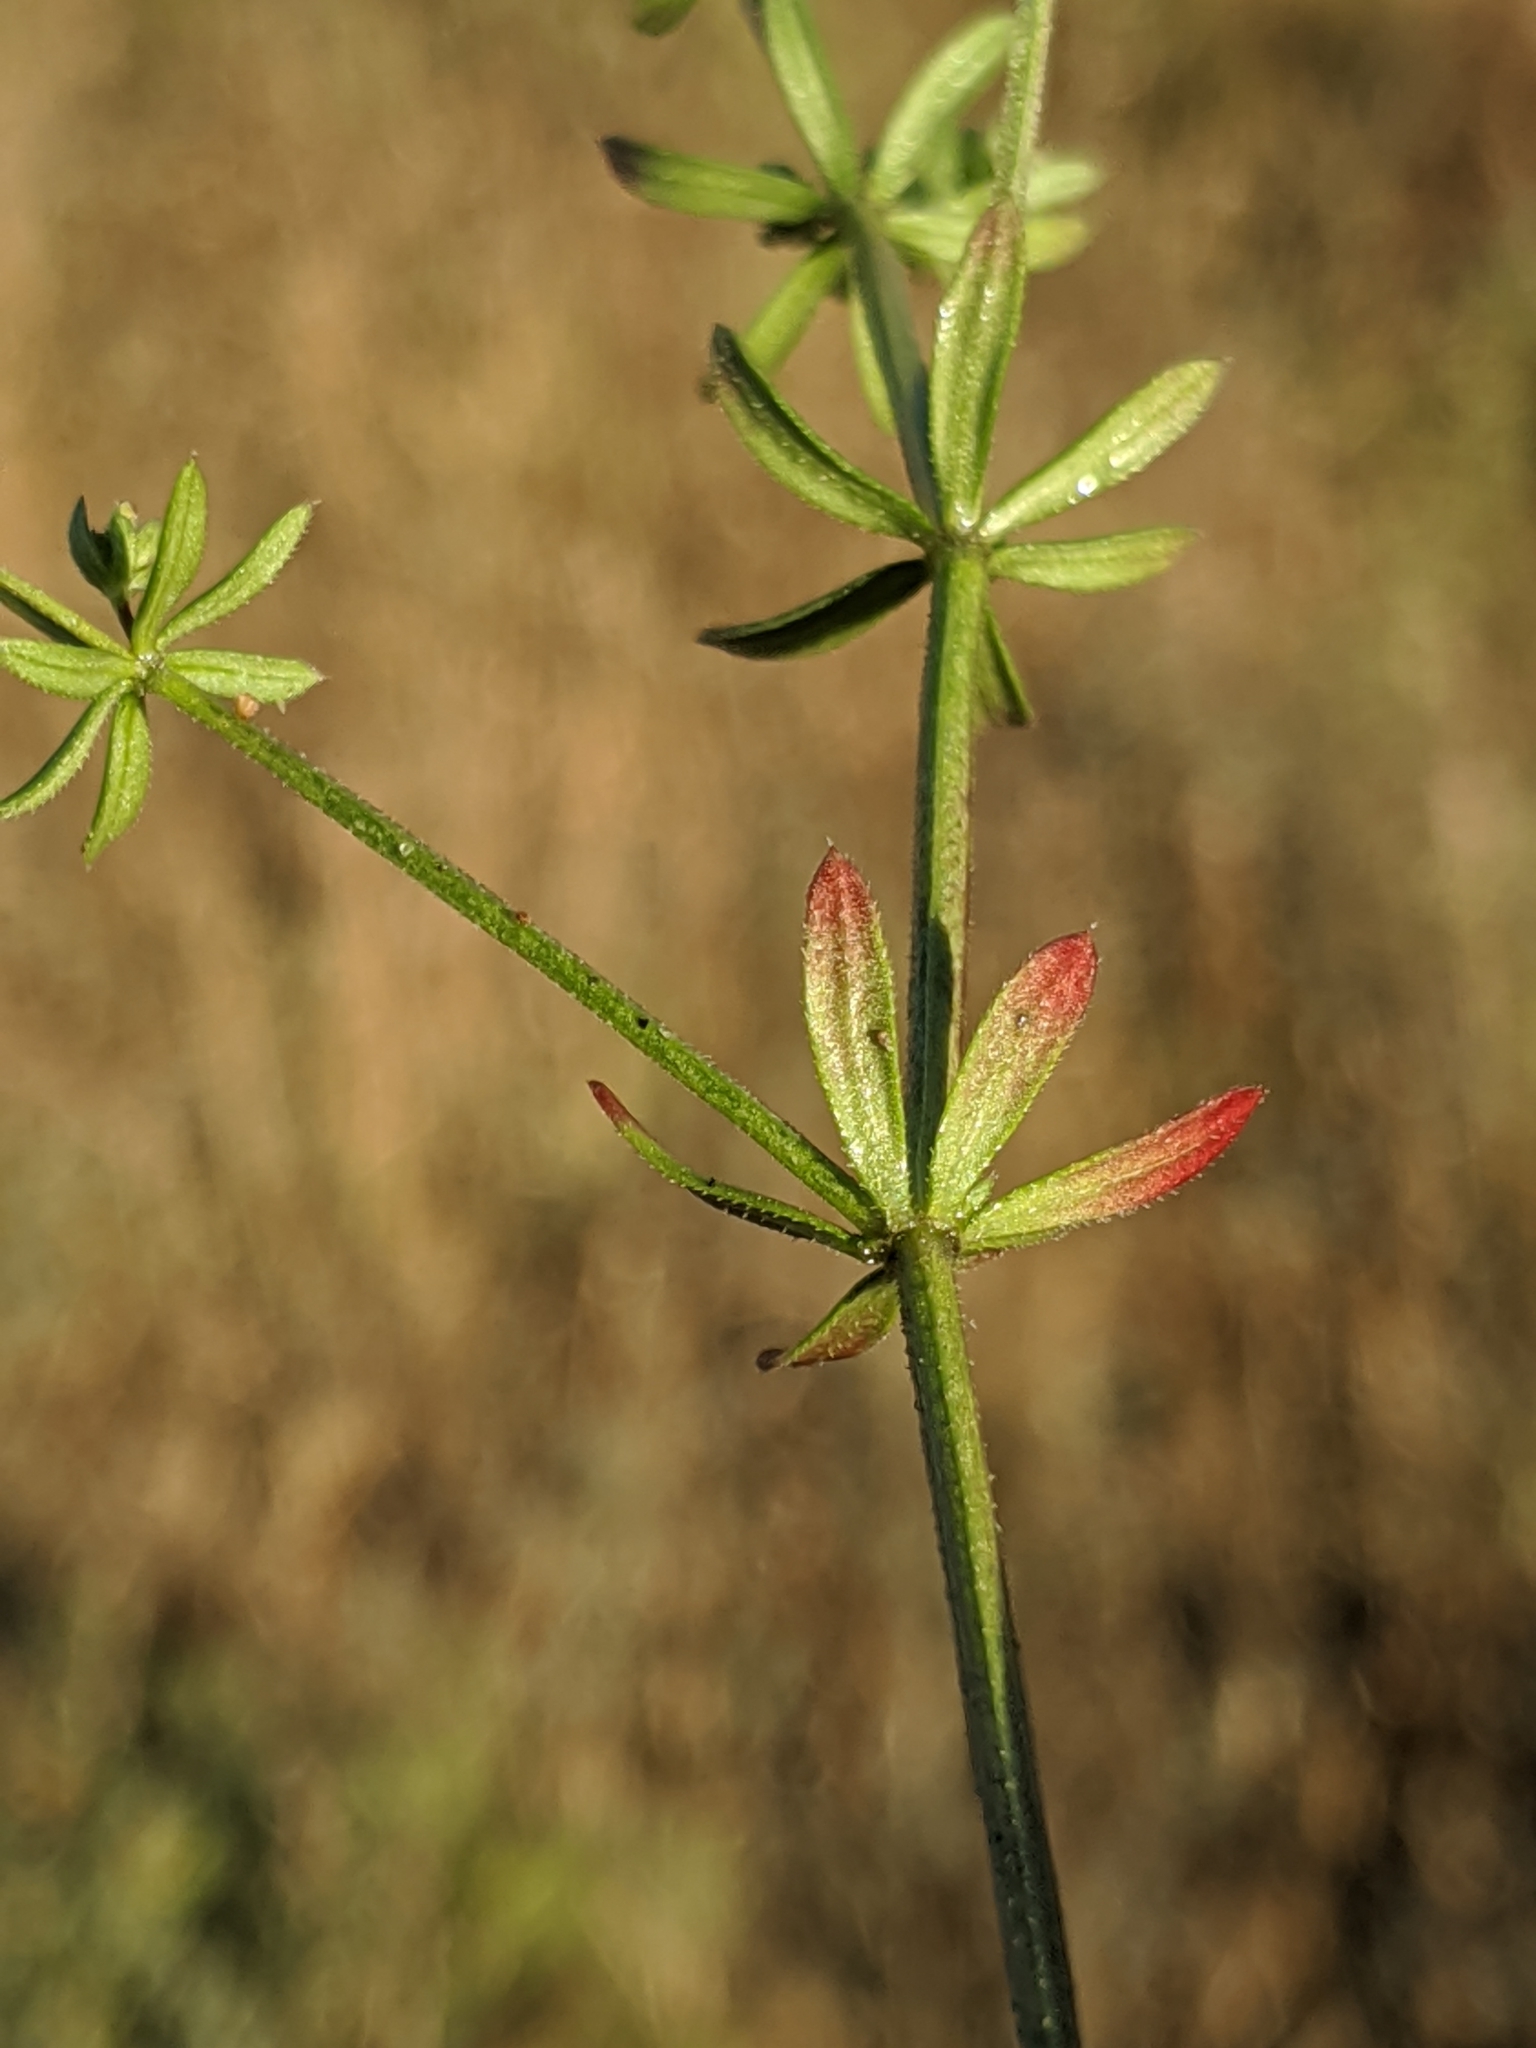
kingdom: Plantae
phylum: Tracheophyta
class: Magnoliopsida
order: Gentianales
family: Rubiaceae
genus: Galium
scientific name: Galium parisiense
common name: Wall bedstraw
